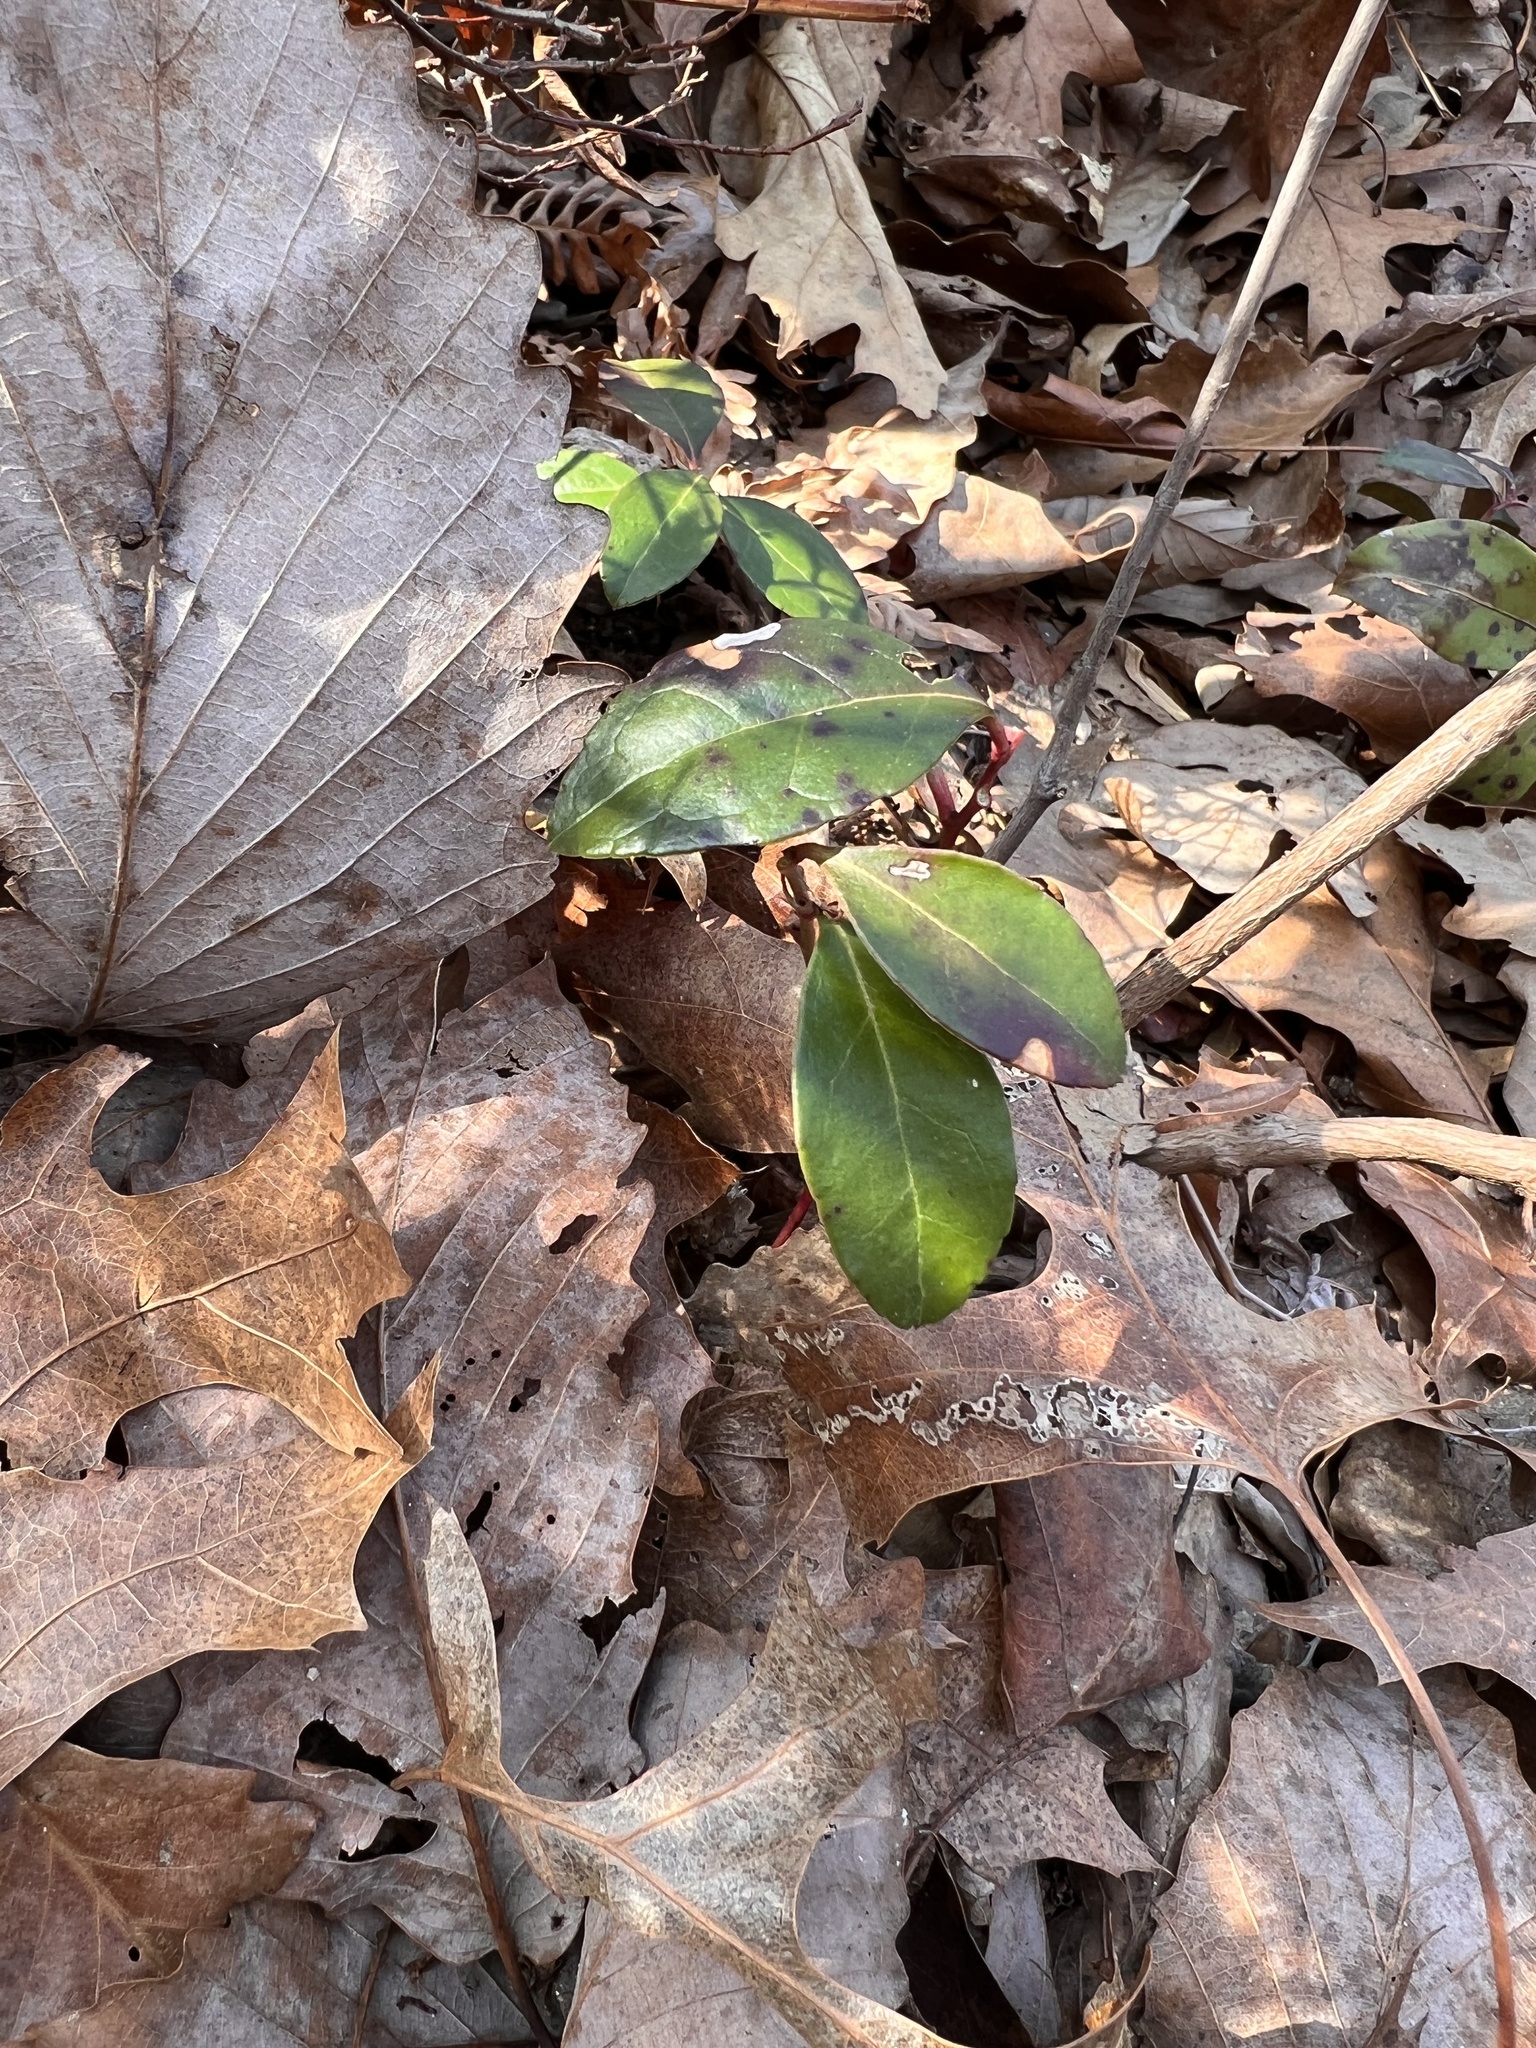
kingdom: Plantae
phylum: Tracheophyta
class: Magnoliopsida
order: Ericales
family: Ericaceae
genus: Gaultheria
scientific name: Gaultheria procumbens
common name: Checkerberry
